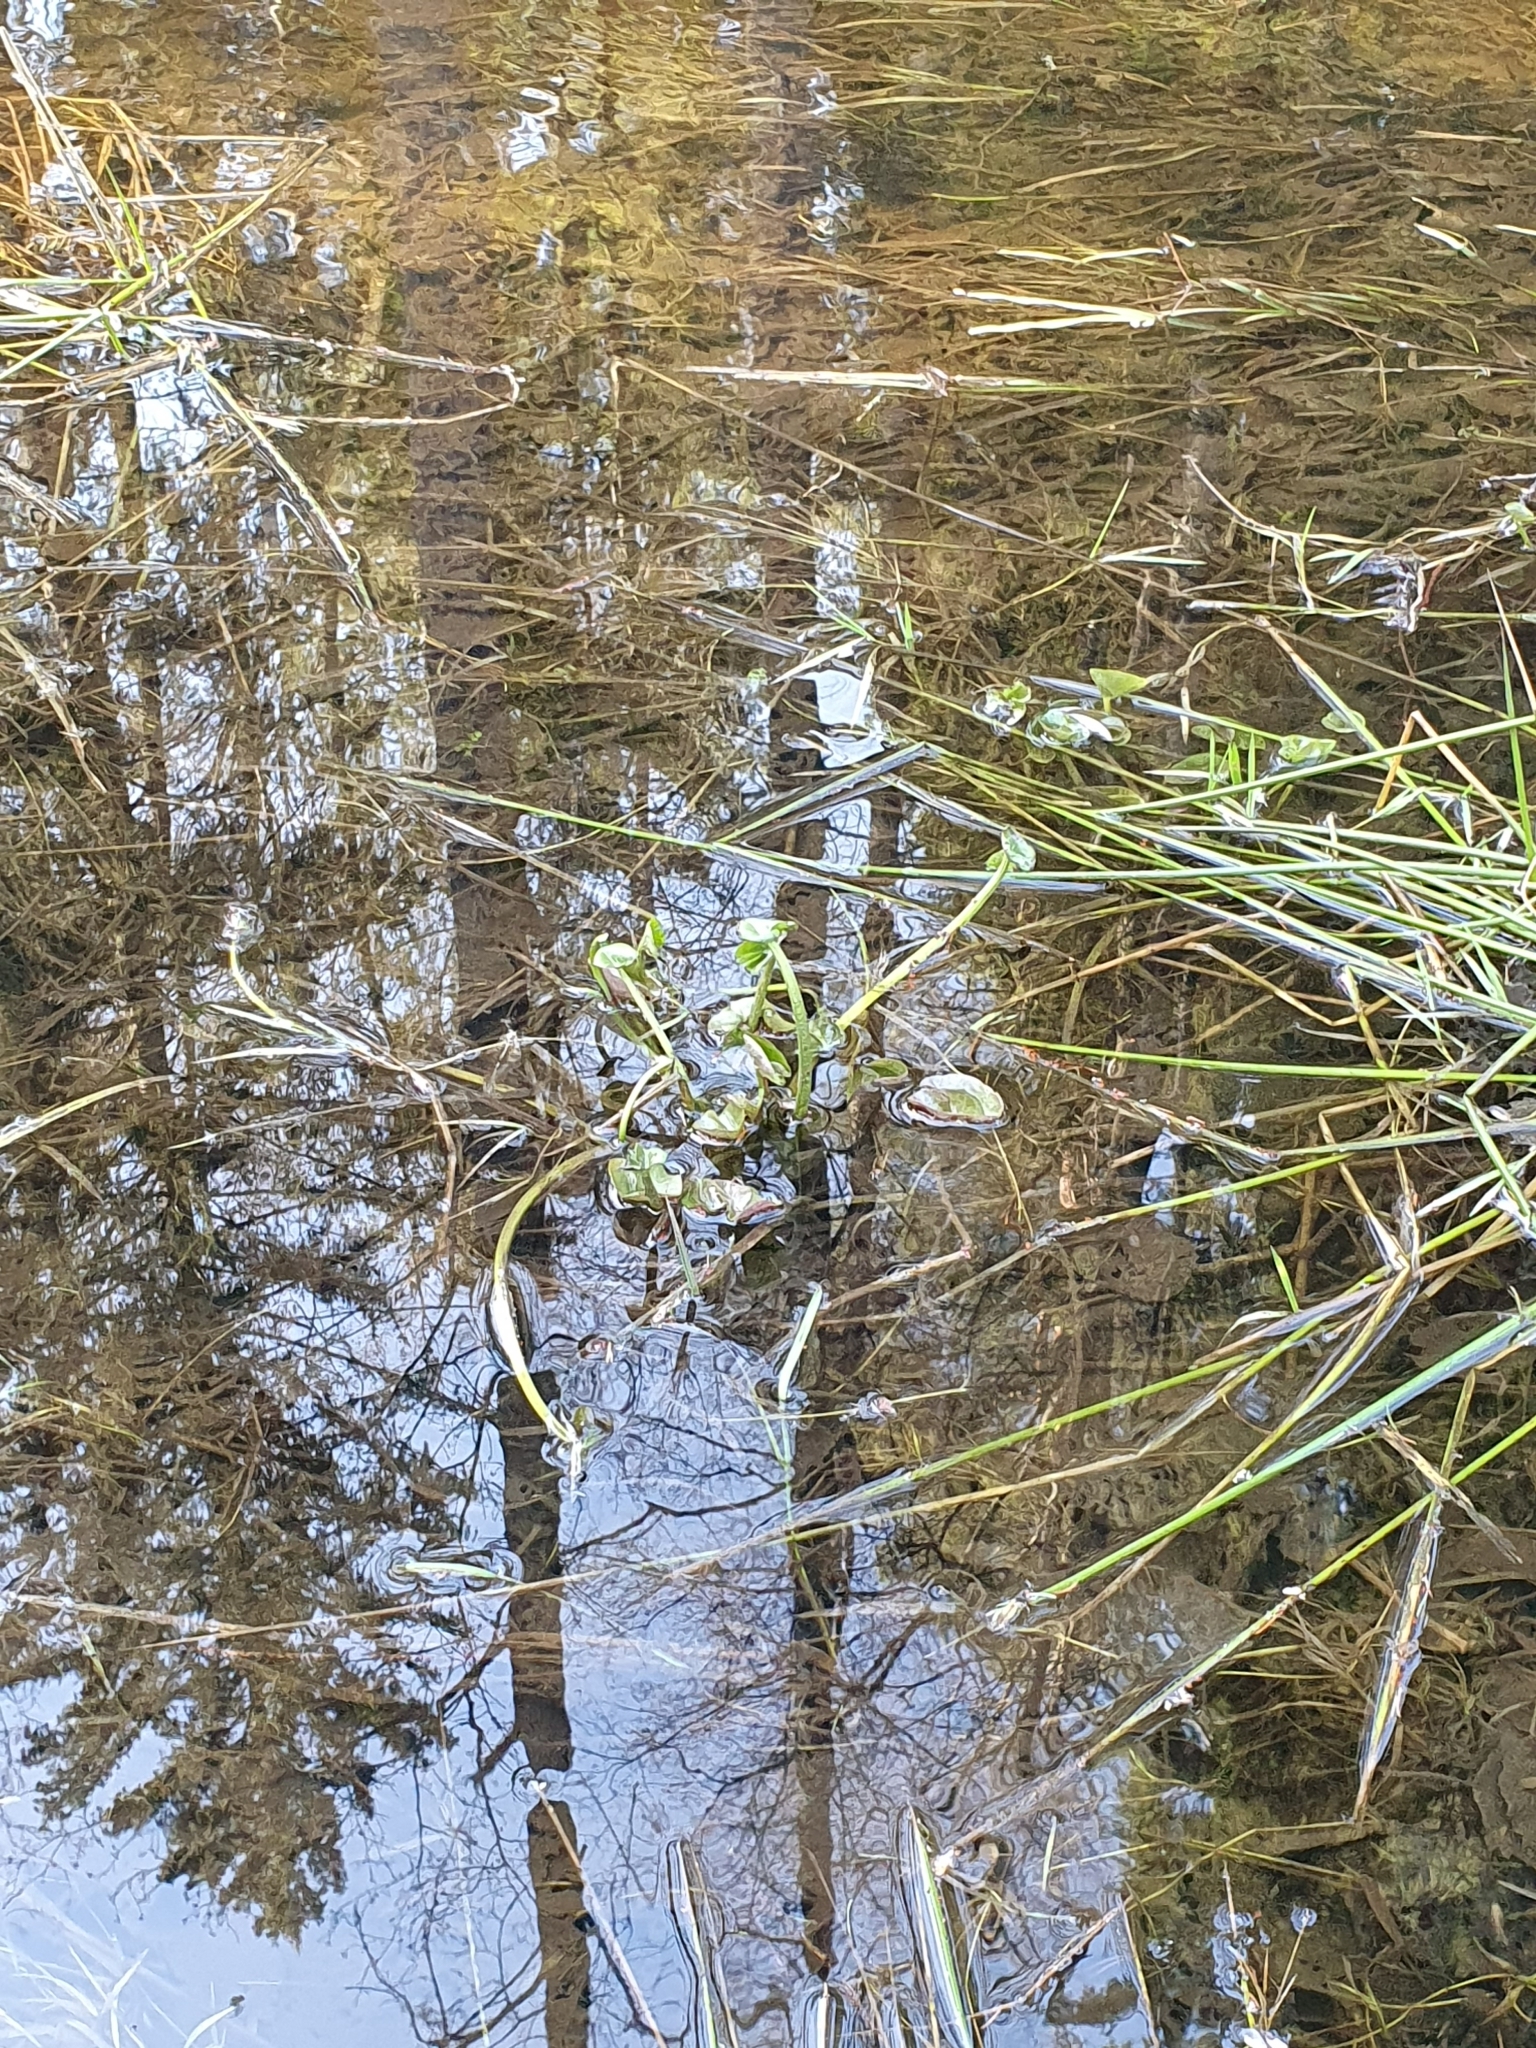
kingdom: Plantae
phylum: Tracheophyta
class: Magnoliopsida
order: Ranunculales
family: Ranunculaceae
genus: Caltha
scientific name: Caltha palustris
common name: Marsh marigold
